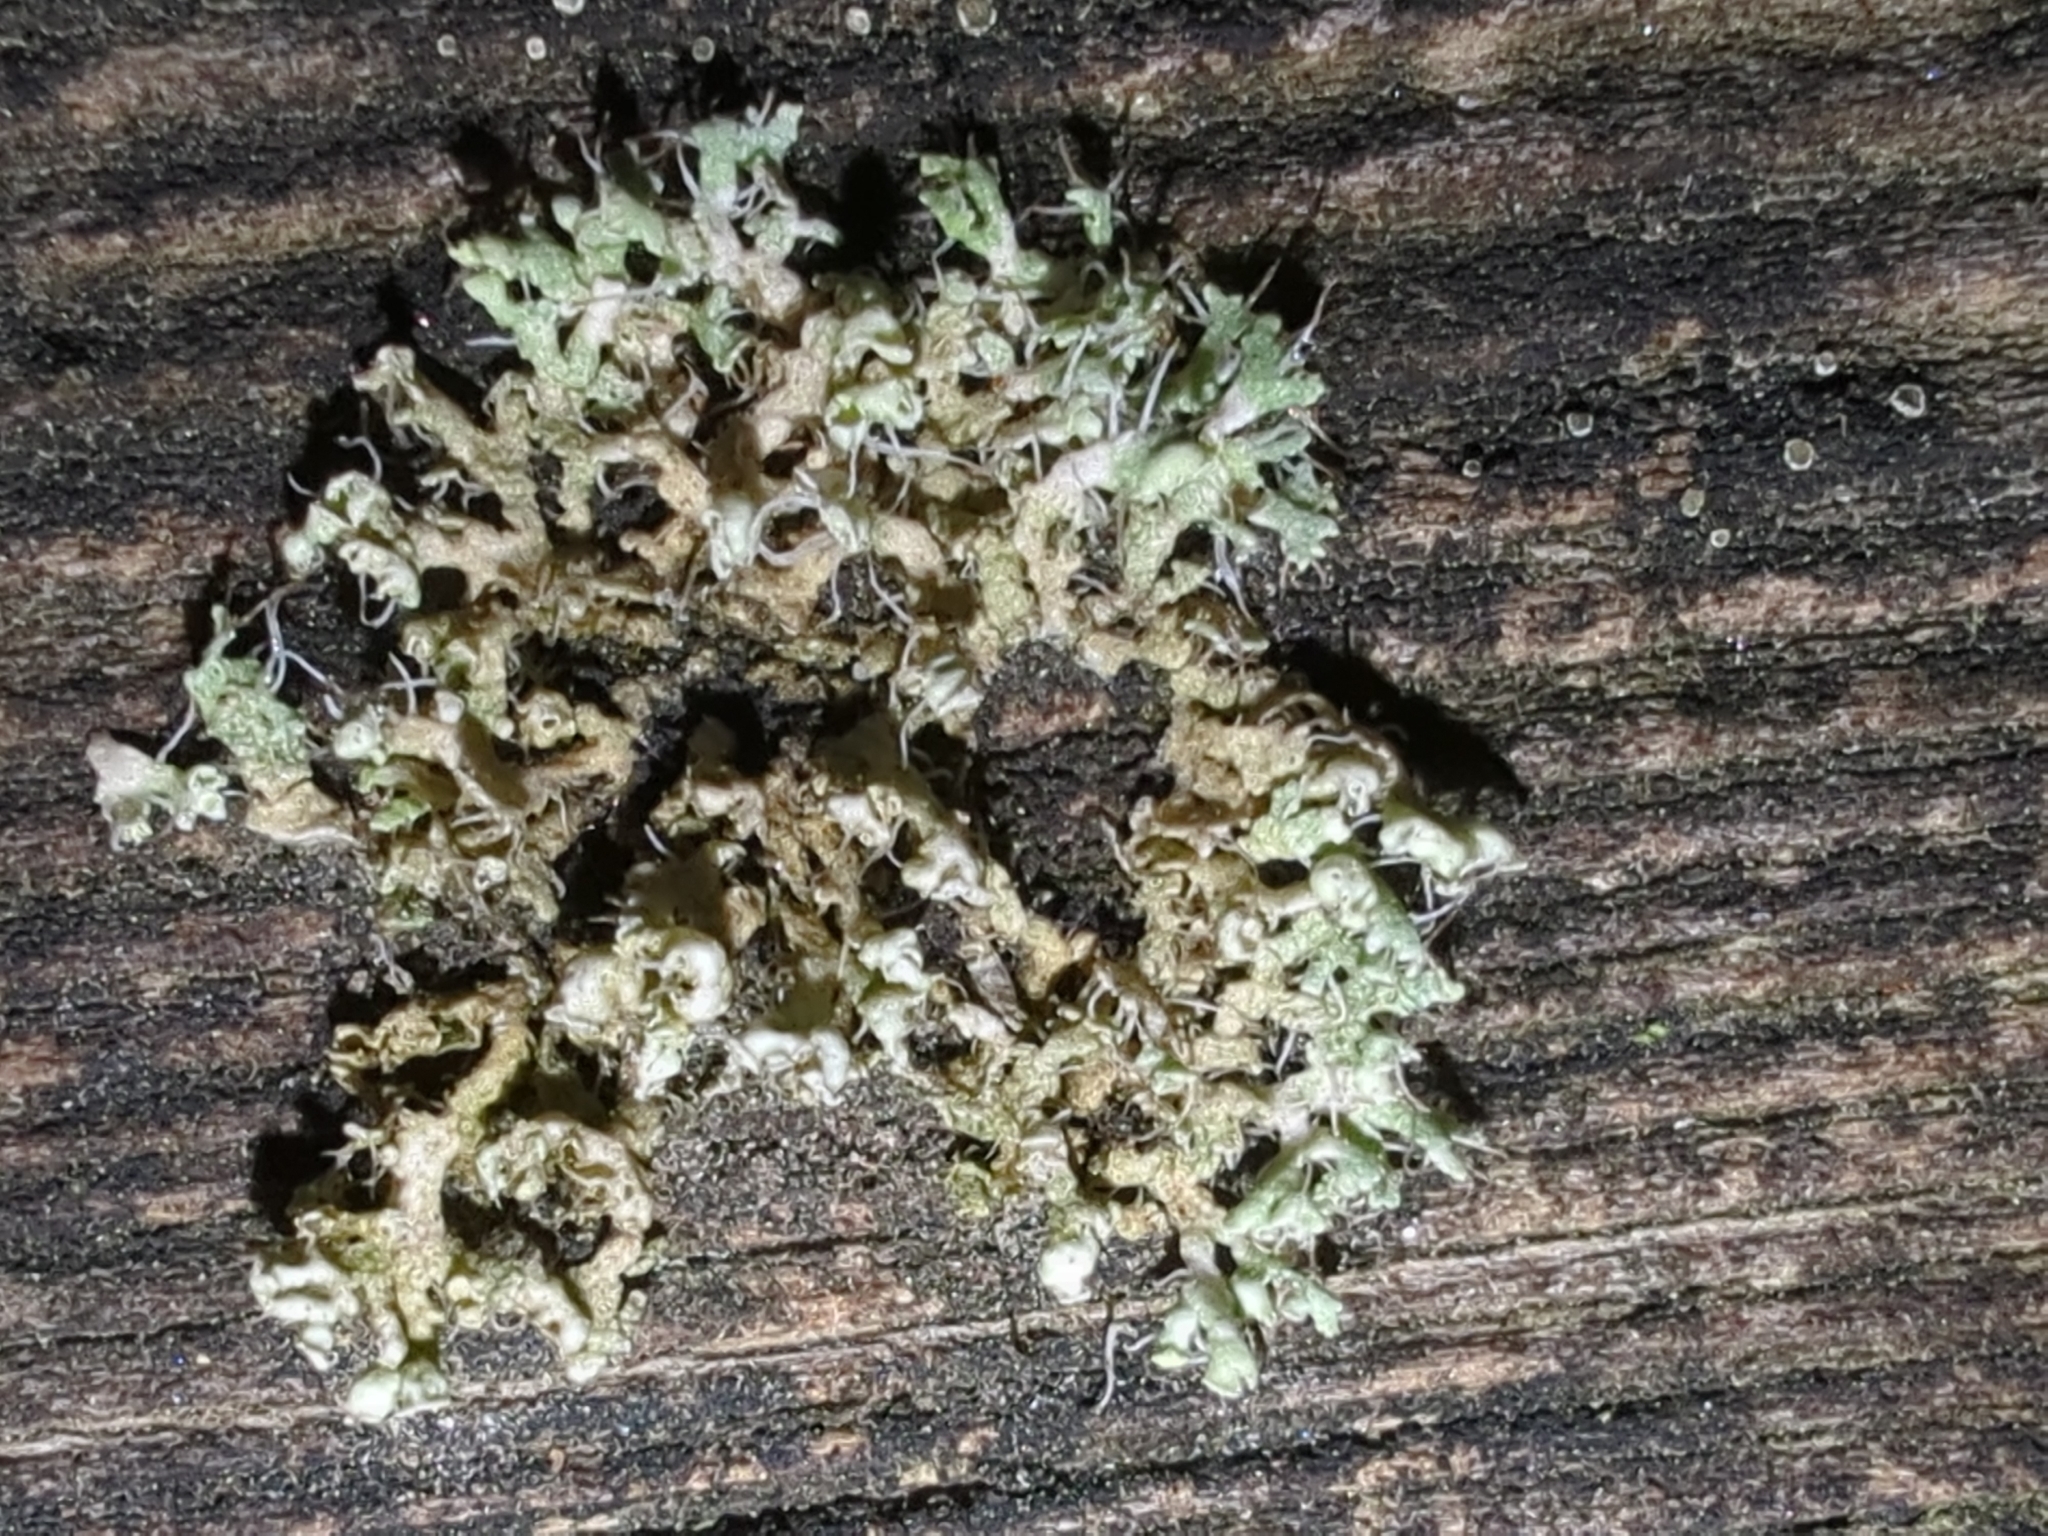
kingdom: Fungi
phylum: Ascomycota
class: Lecanoromycetes
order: Caliciales
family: Physciaceae
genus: Physcia
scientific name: Physcia adscendens
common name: Hooded rosette lichen
